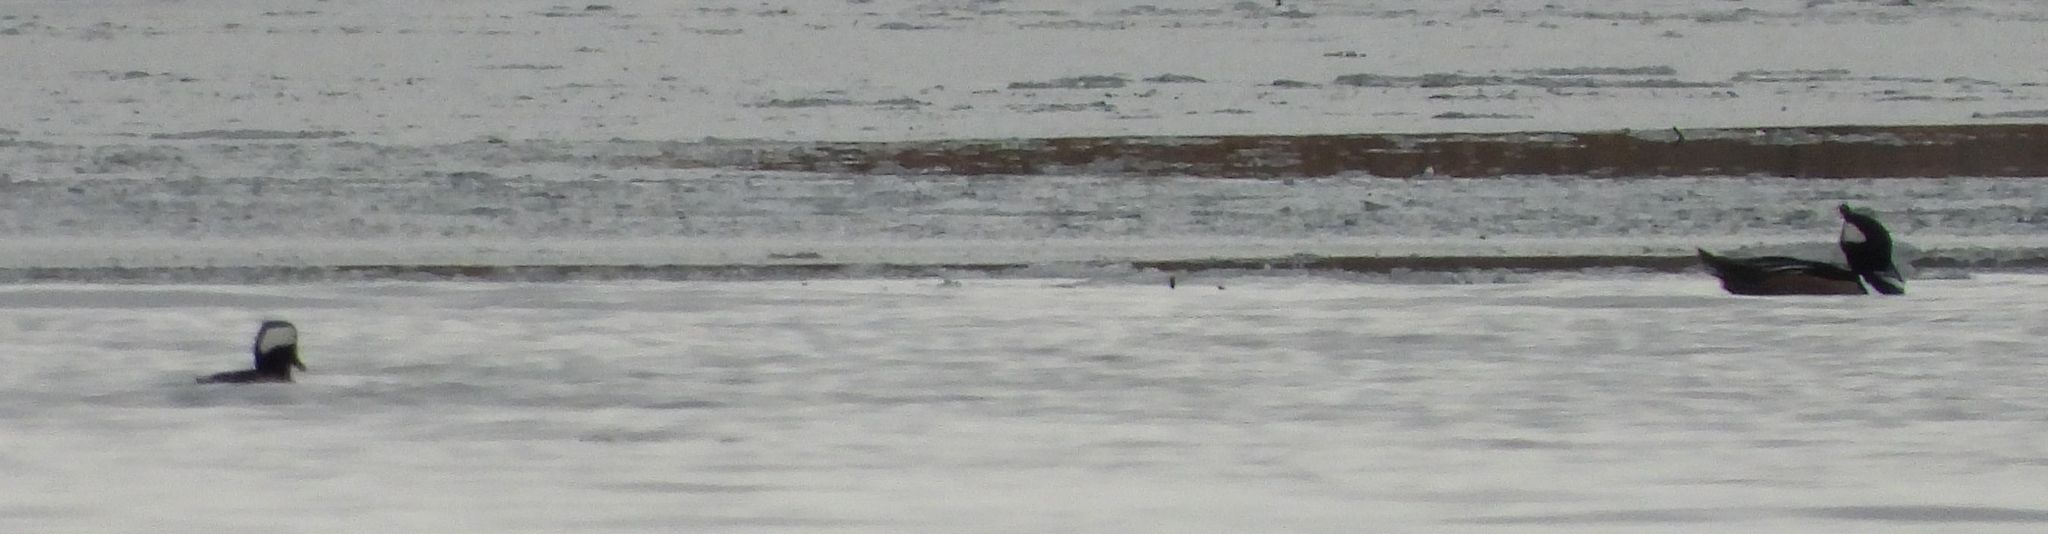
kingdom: Animalia
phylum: Chordata
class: Aves
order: Anseriformes
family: Anatidae
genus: Lophodytes
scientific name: Lophodytes cucullatus
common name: Hooded merganser
